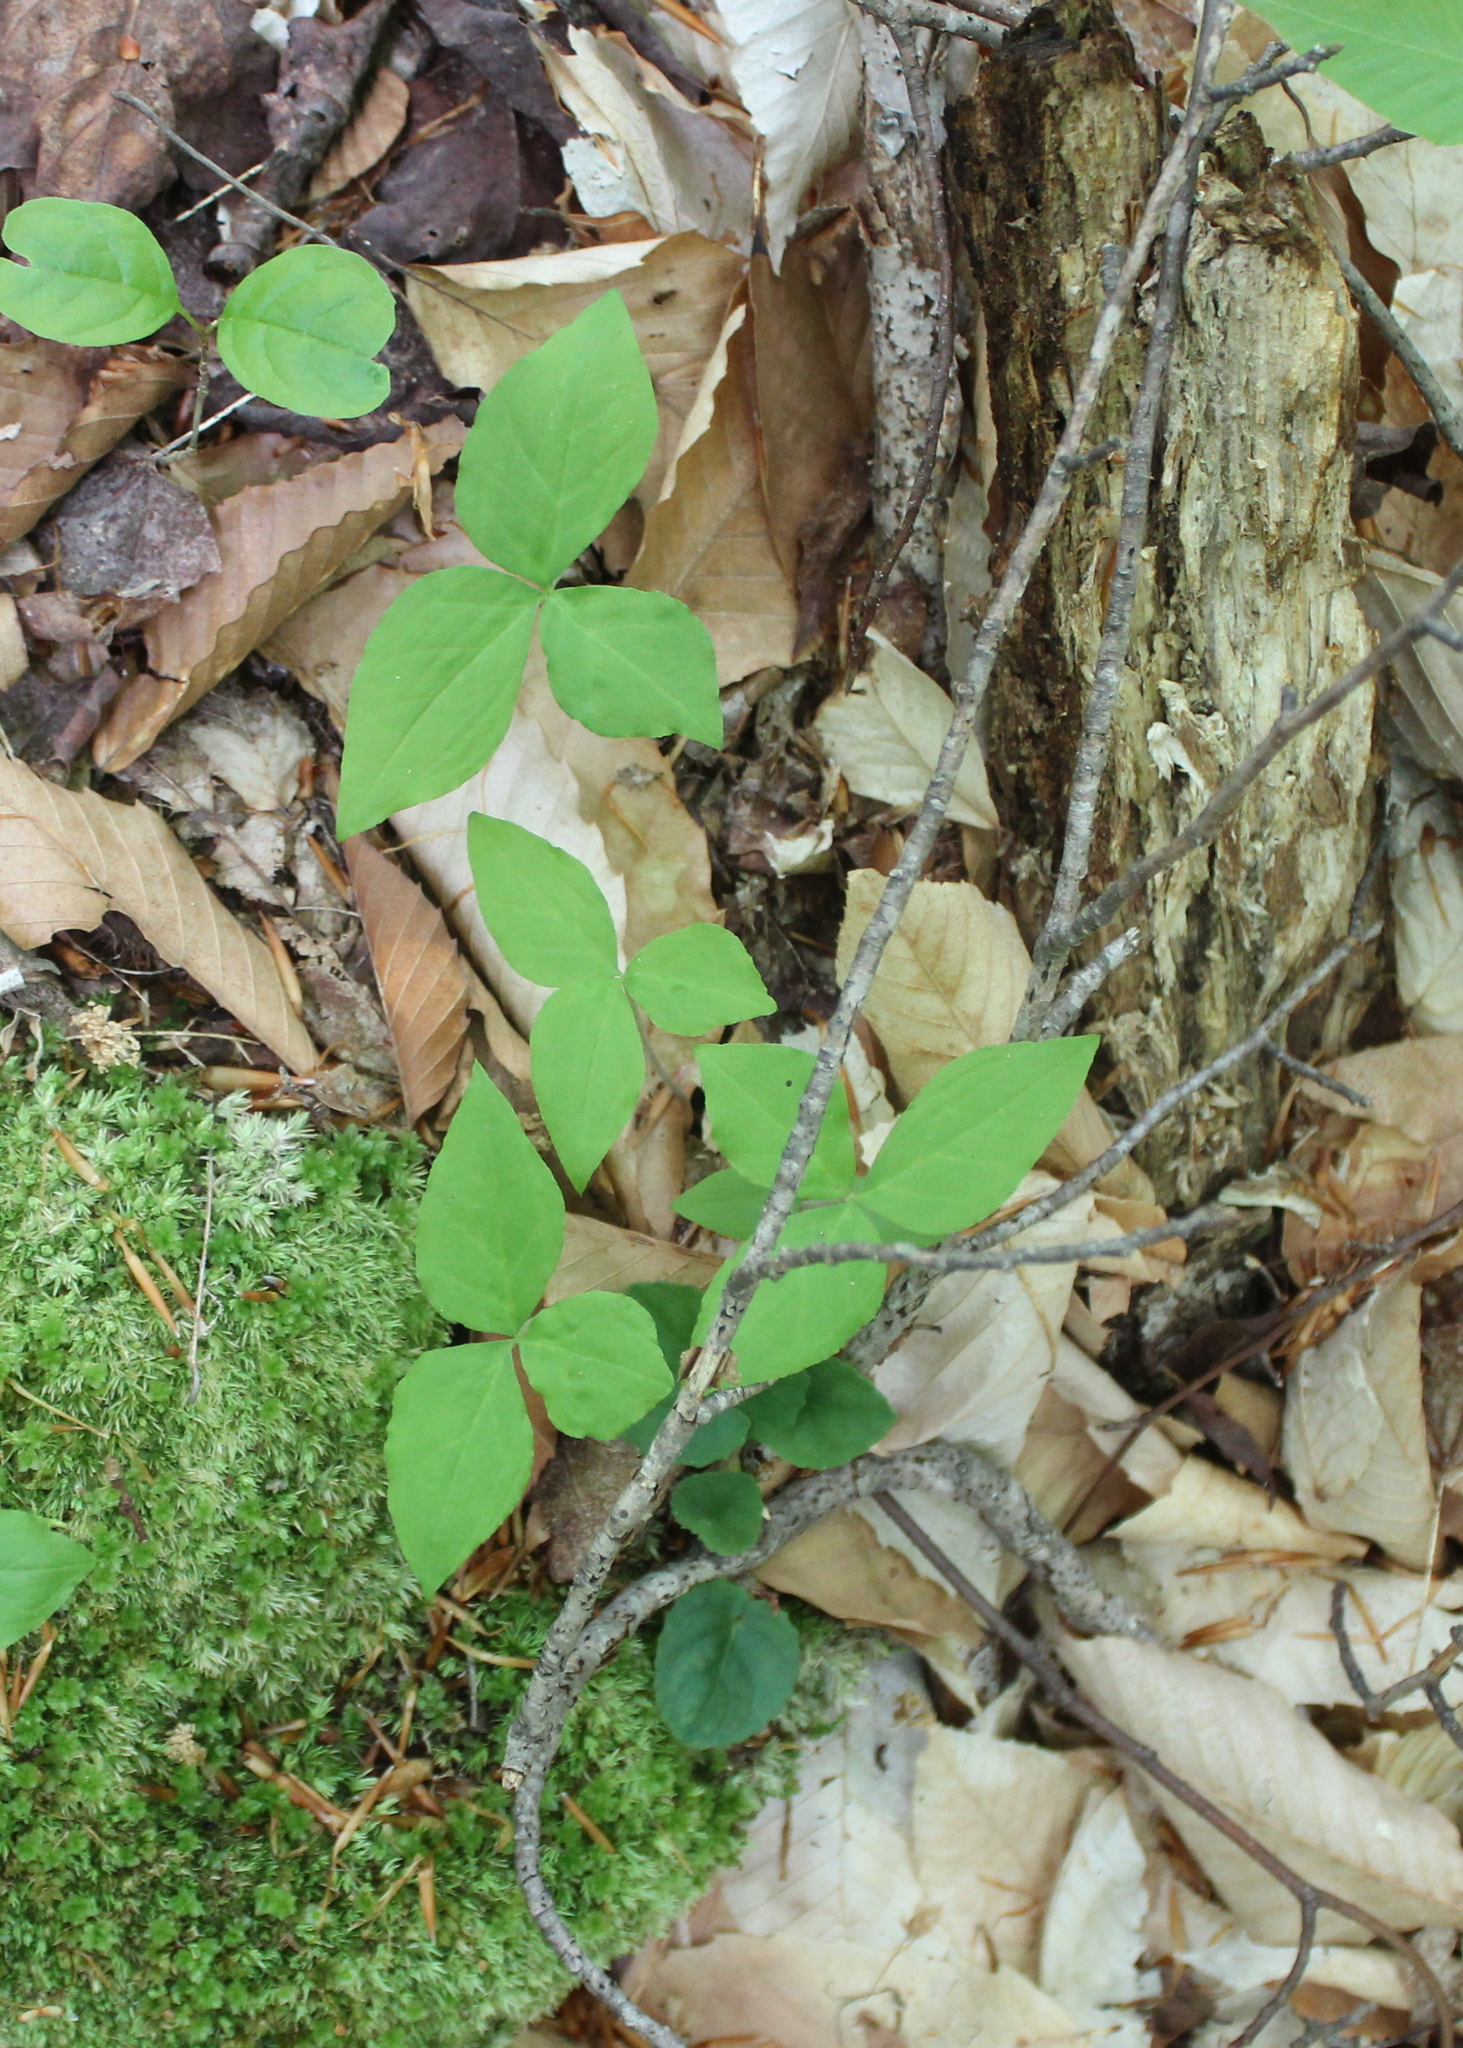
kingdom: Plantae
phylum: Tracheophyta
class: Liliopsida
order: Alismatales
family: Araceae
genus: Arisaema
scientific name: Arisaema triphyllum
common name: Jack-in-the-pulpit
